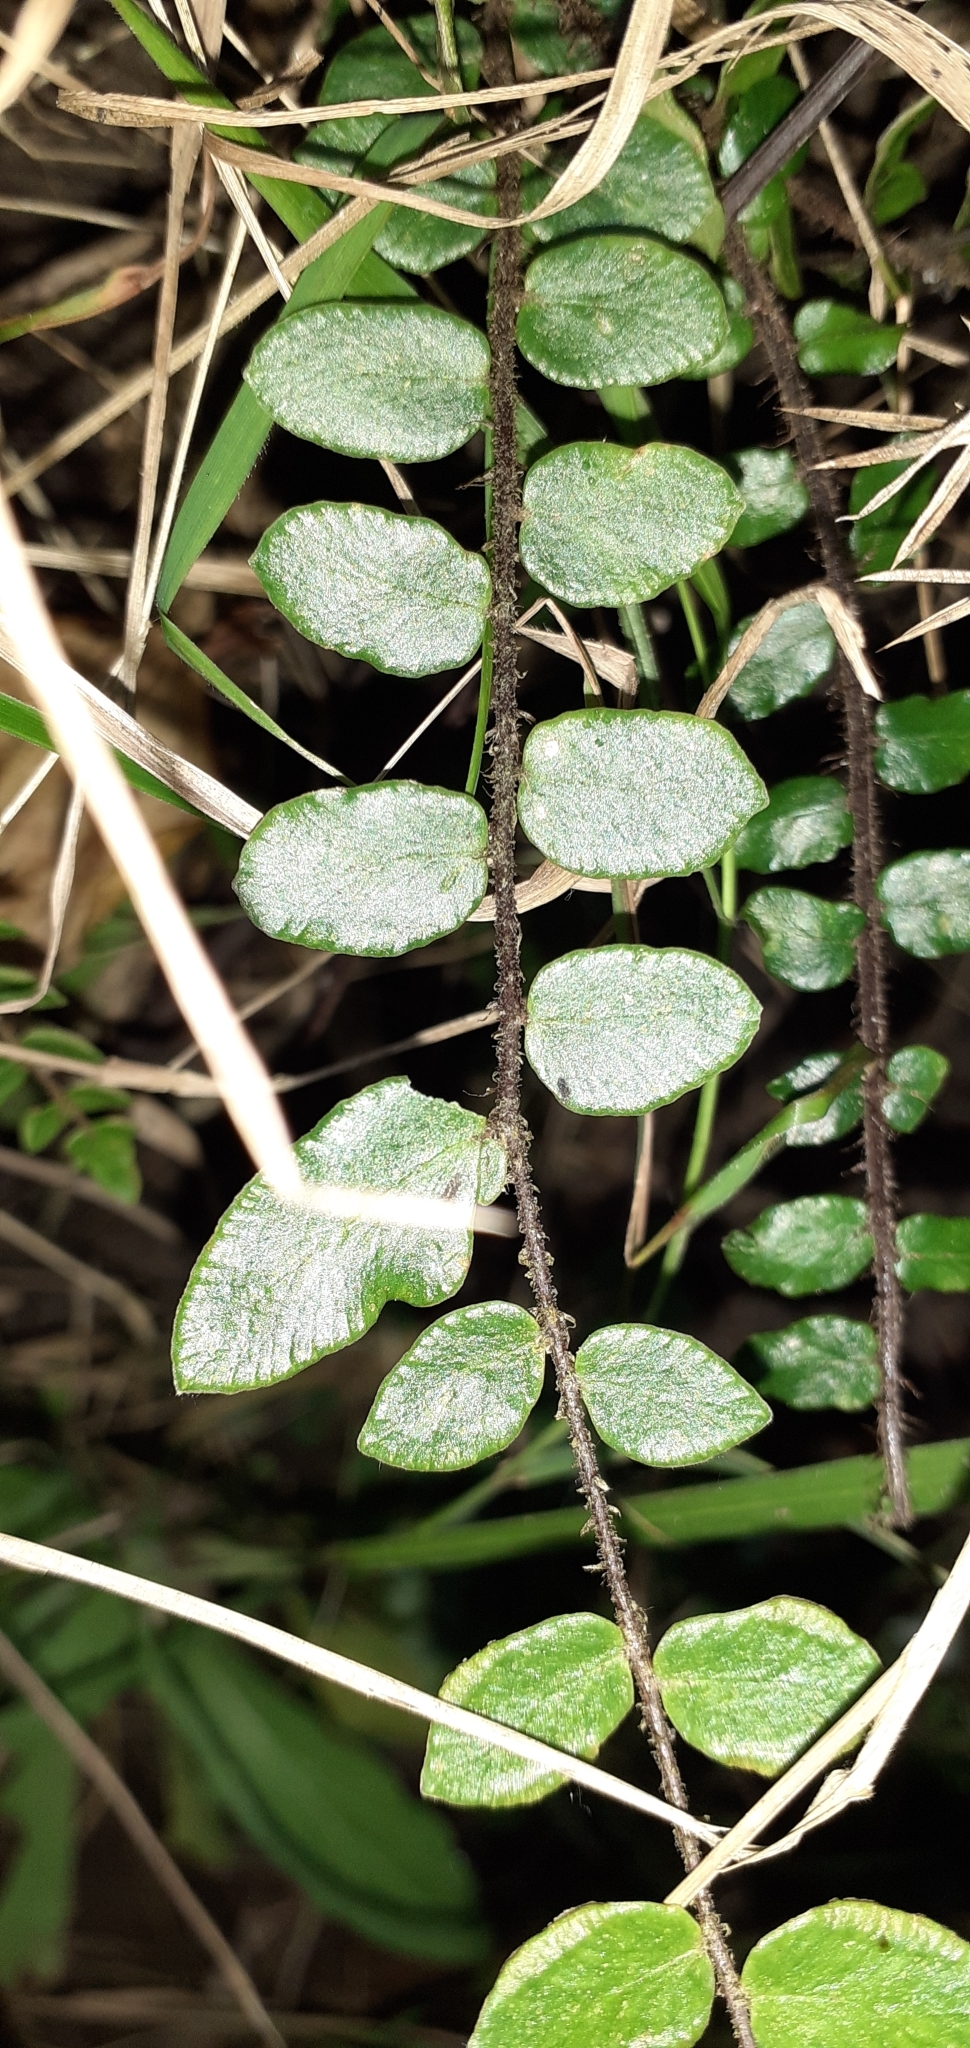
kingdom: Plantae
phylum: Tracheophyta
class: Polypodiopsida
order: Polypodiales
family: Pteridaceae
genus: Pellaea
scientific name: Pellaea rotundifolia
